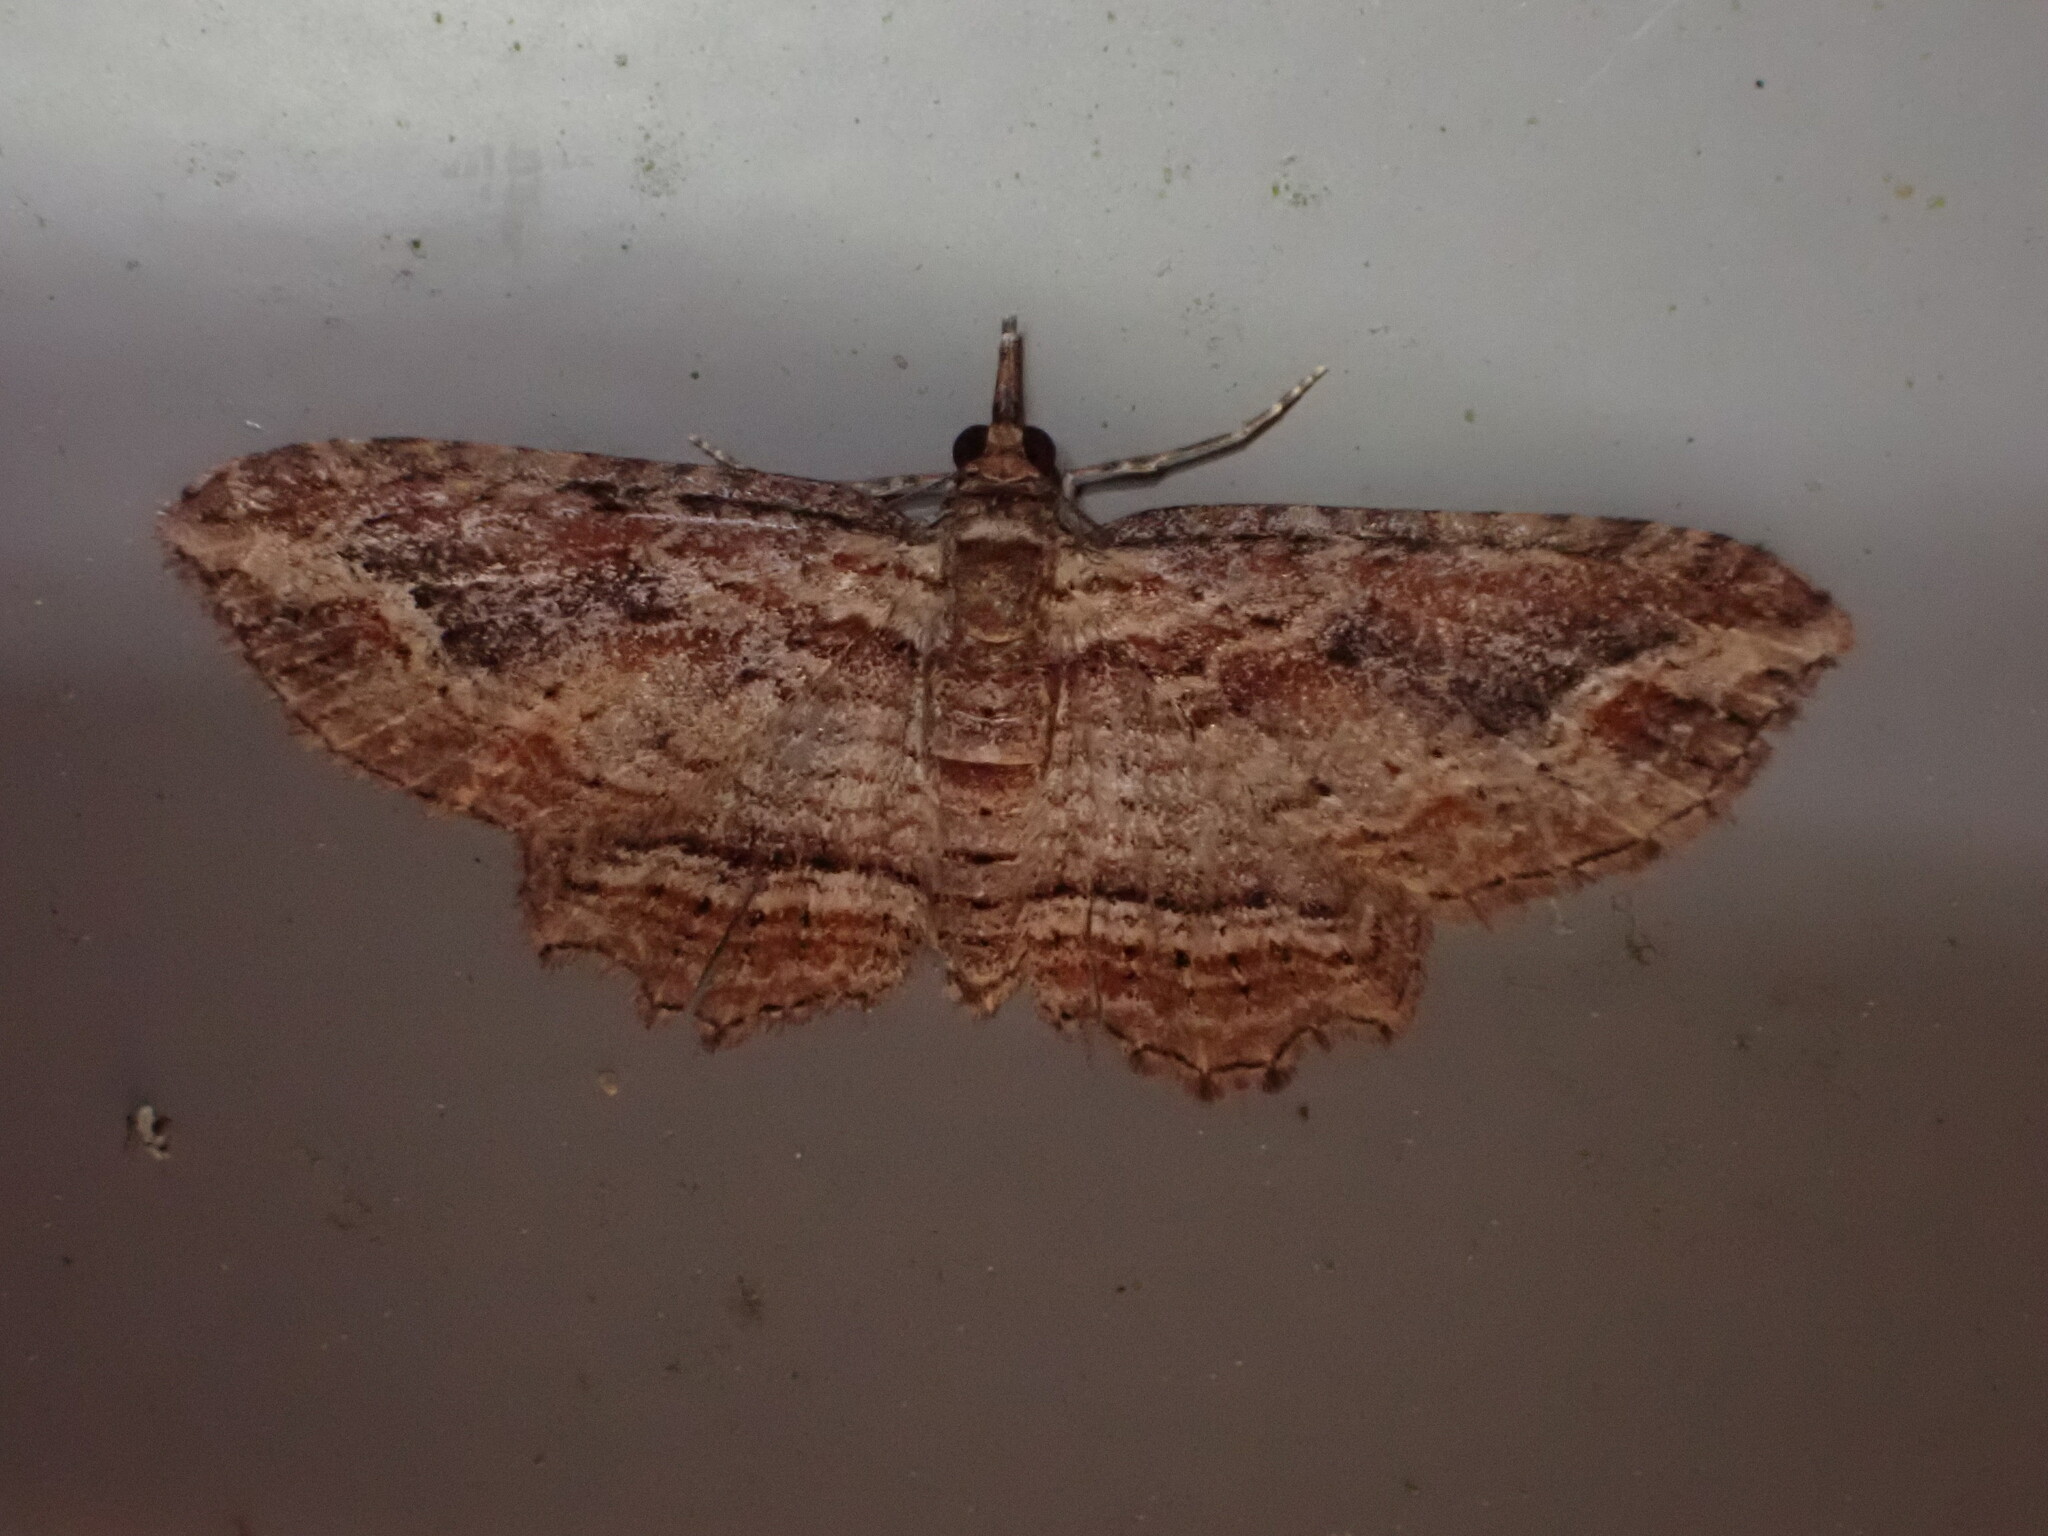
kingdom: Animalia
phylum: Arthropoda
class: Insecta
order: Lepidoptera
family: Geometridae
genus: Chloroclystis
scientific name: Chloroclystis filata
